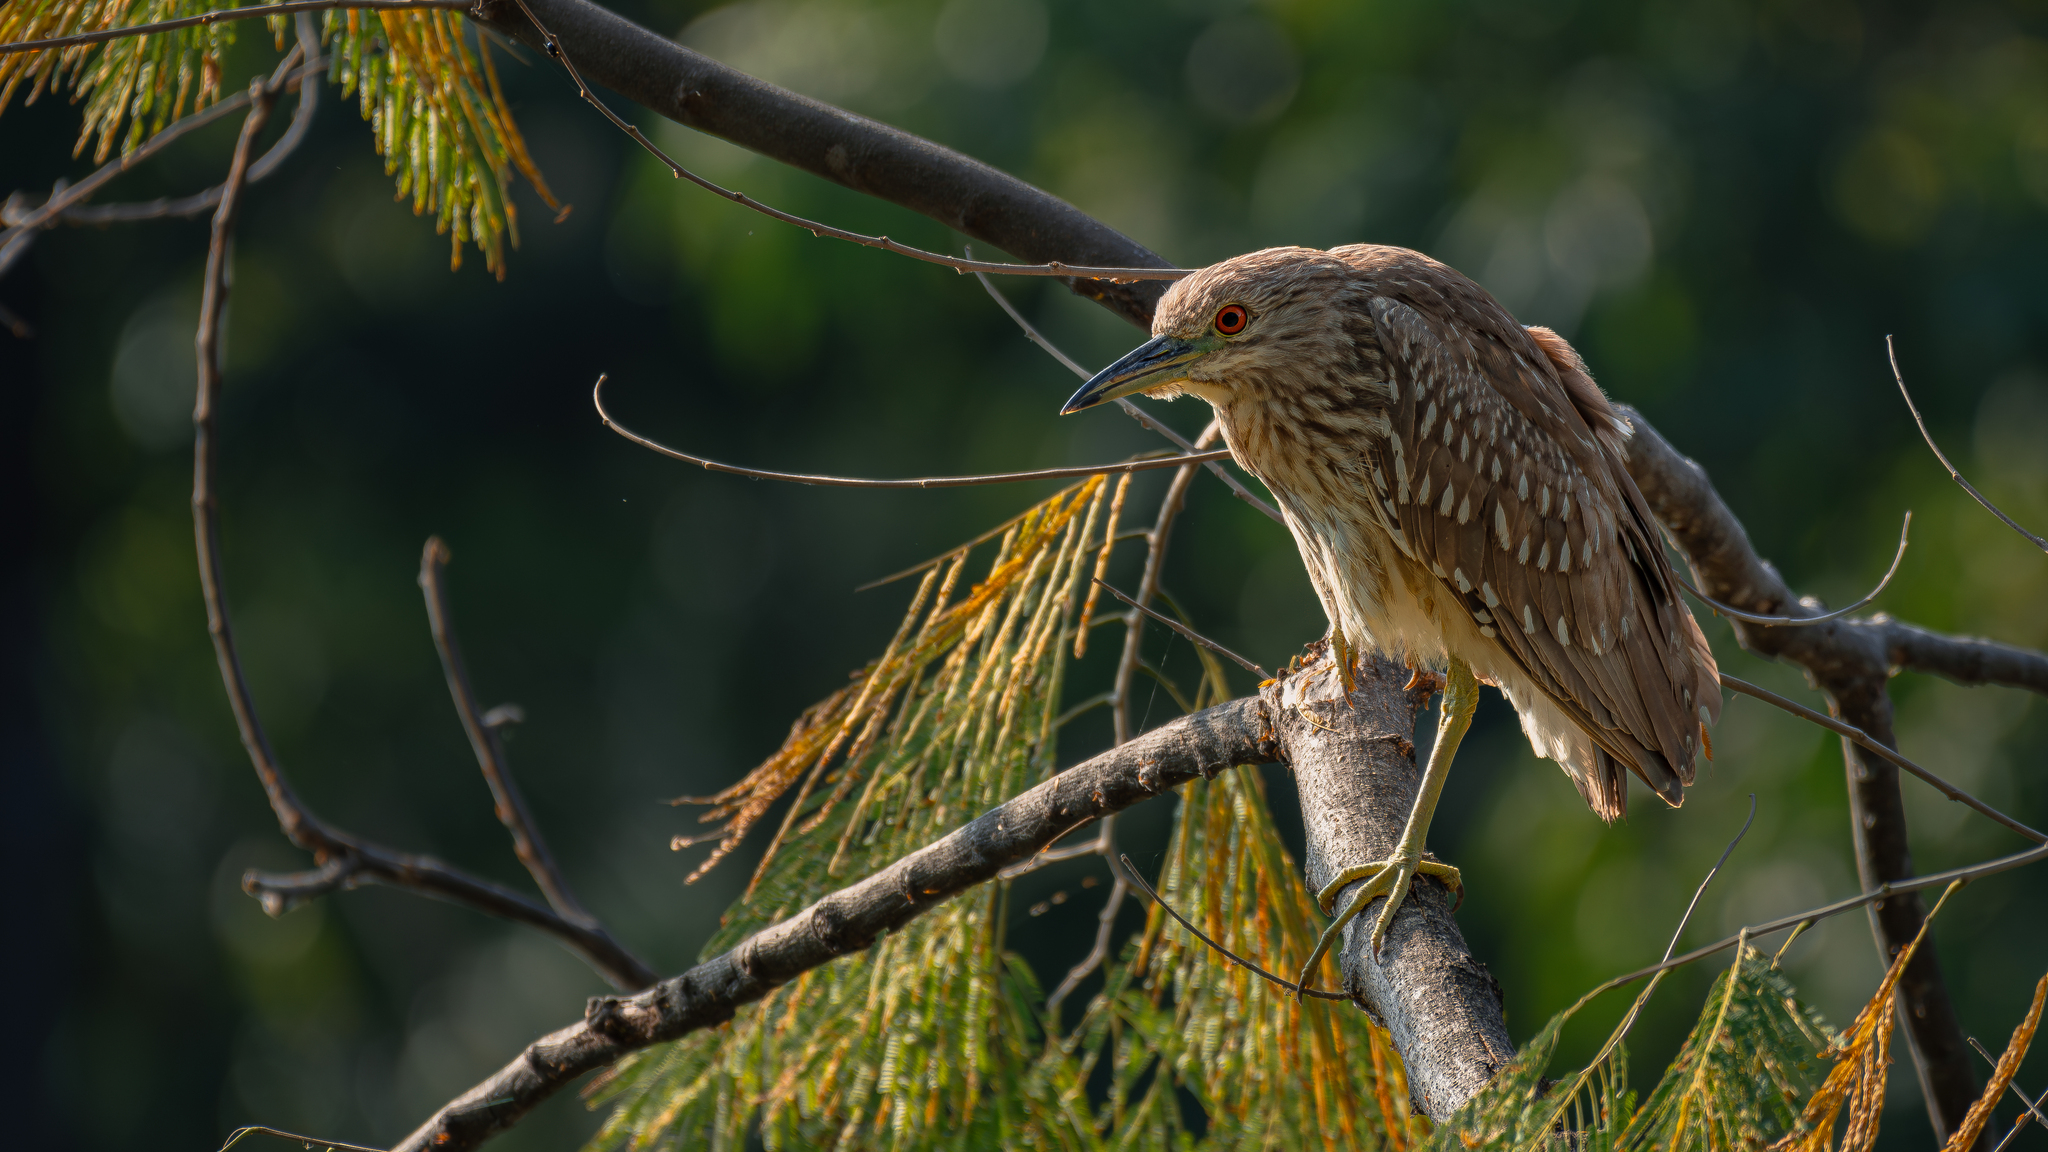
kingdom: Animalia
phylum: Chordata
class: Aves
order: Pelecaniformes
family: Ardeidae
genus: Nycticorax
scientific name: Nycticorax nycticorax
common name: Black-crowned night heron
